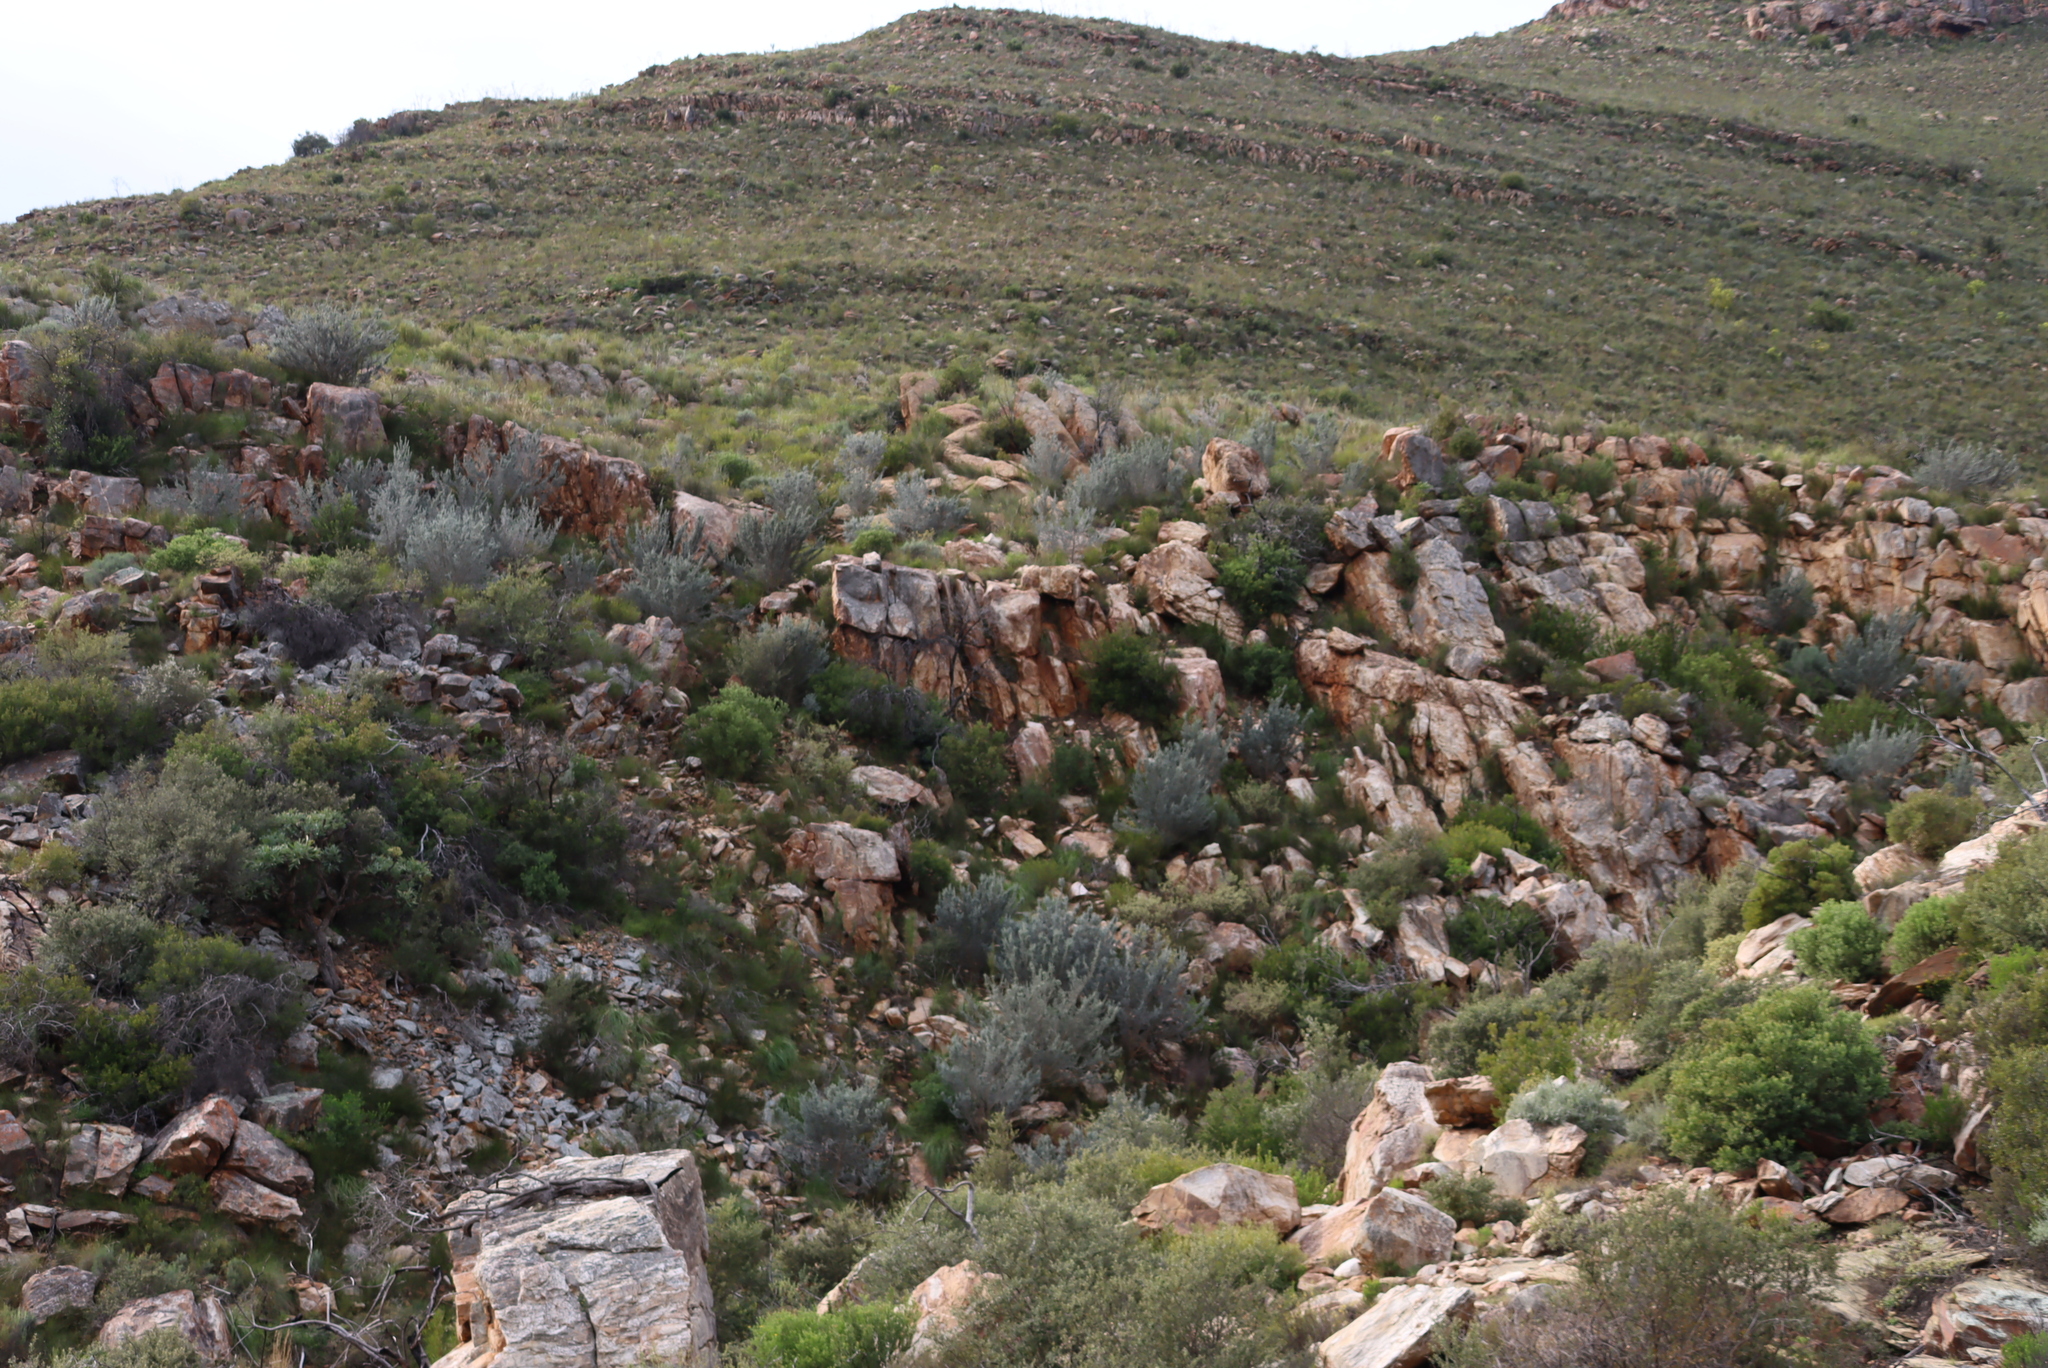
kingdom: Plantae
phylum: Tracheophyta
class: Magnoliopsida
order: Fabales
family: Fabaceae
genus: Aspalathus
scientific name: Aspalathus hystrix
